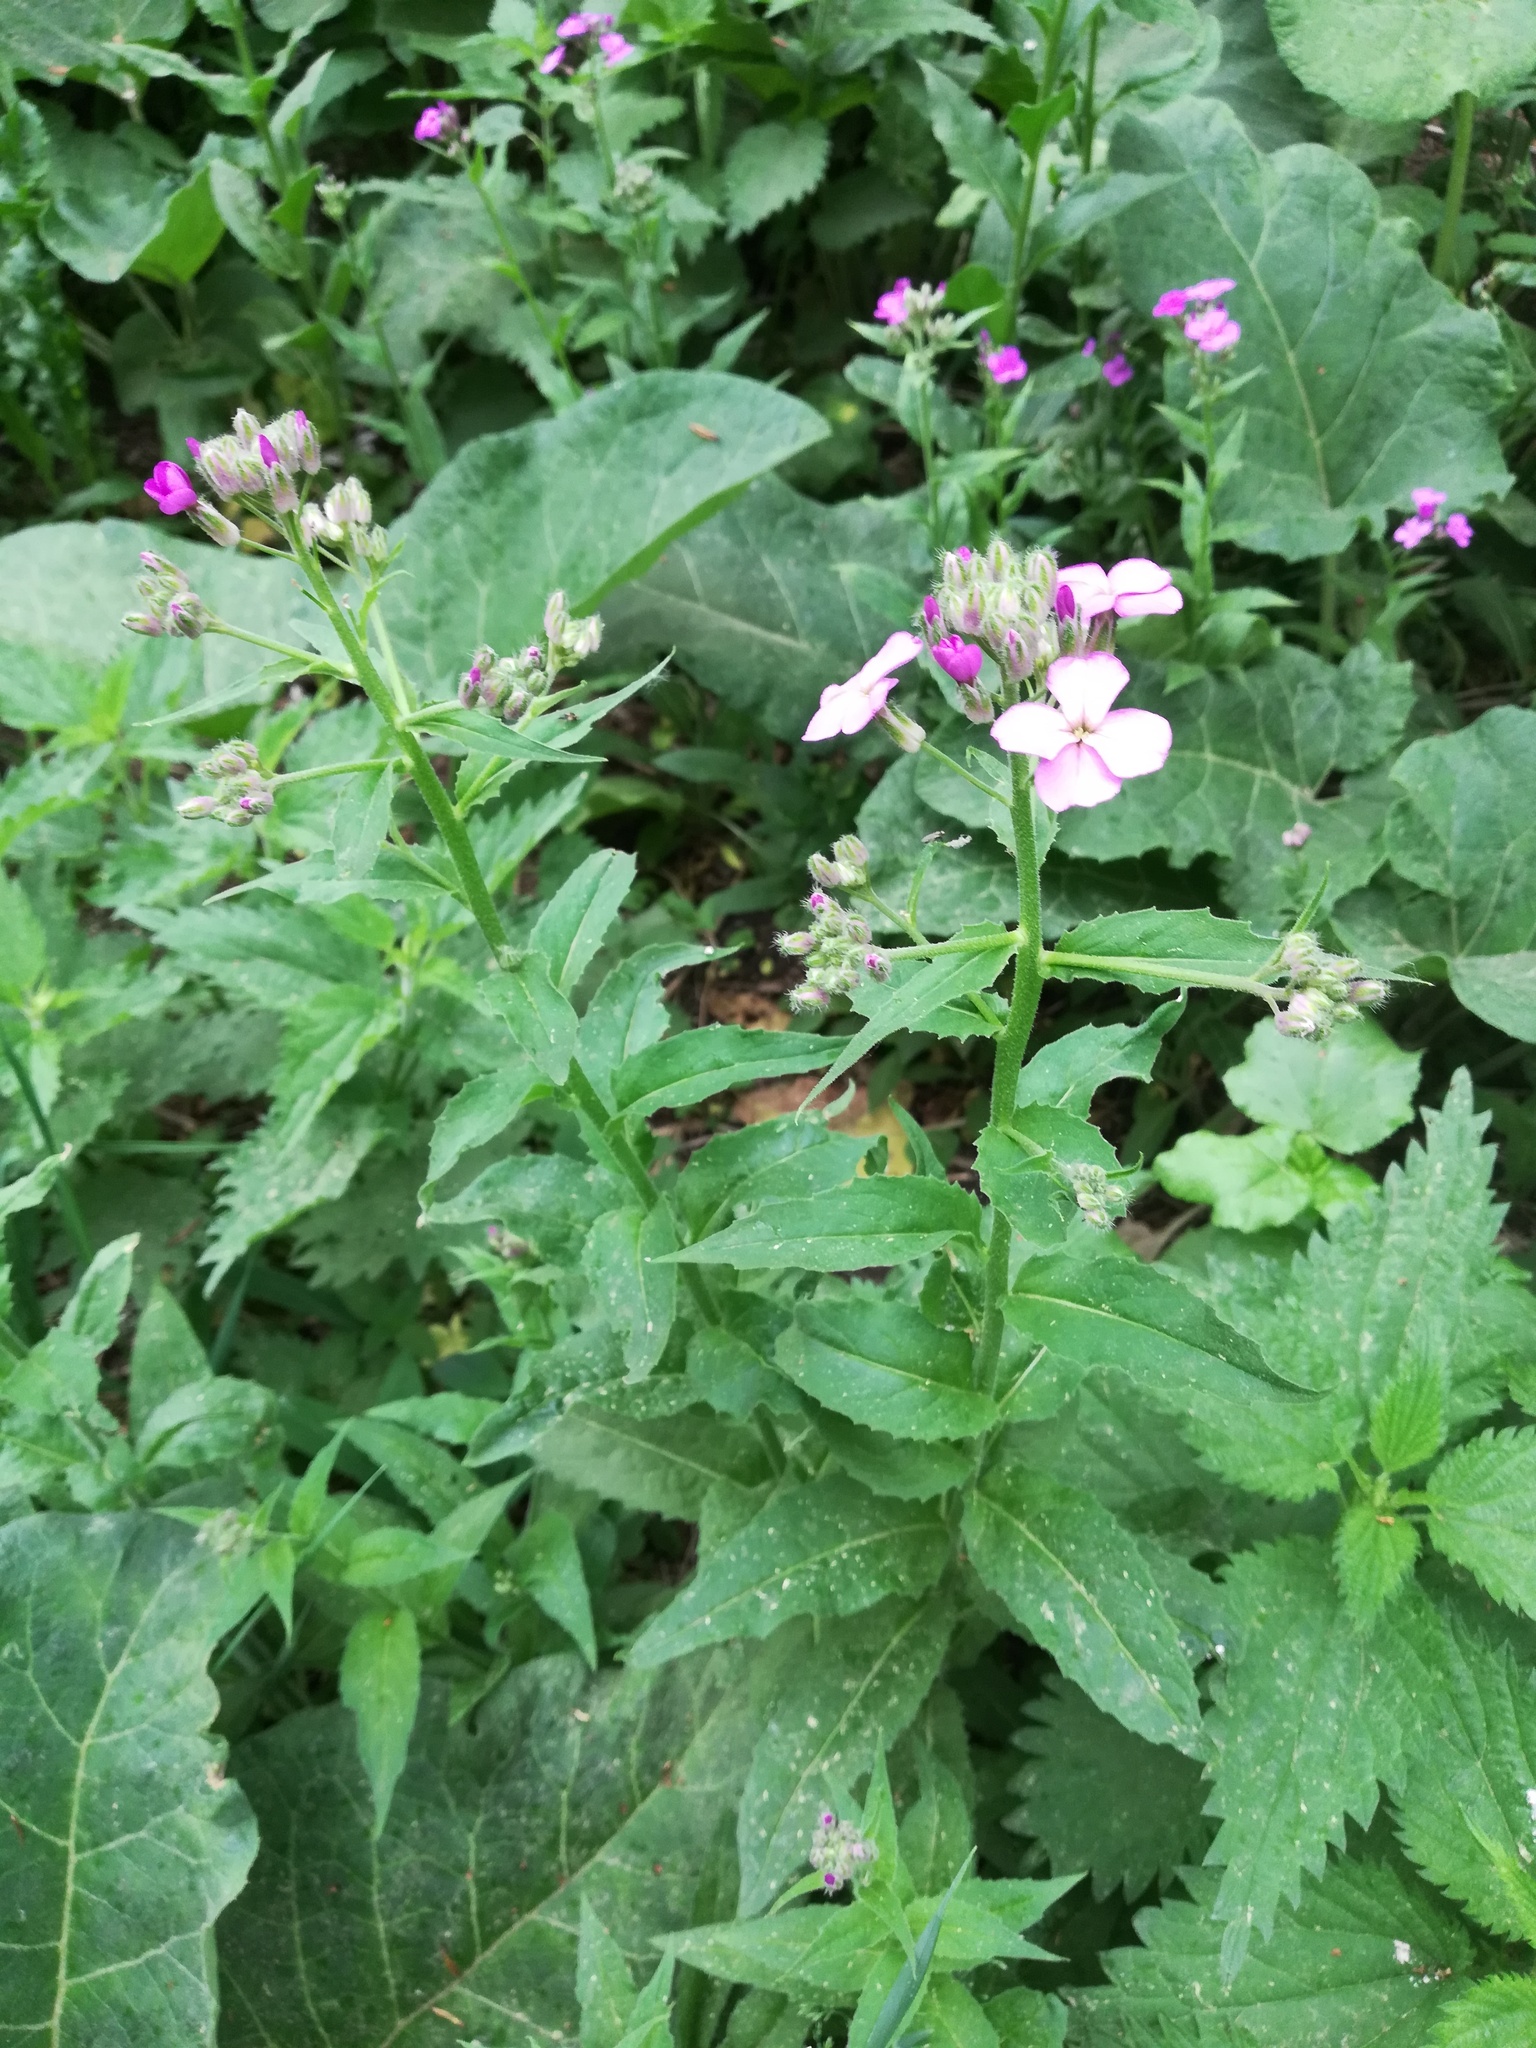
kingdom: Plantae
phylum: Tracheophyta
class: Magnoliopsida
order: Brassicales
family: Brassicaceae
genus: Hesperis
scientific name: Hesperis matronalis
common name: Dame's-violet
